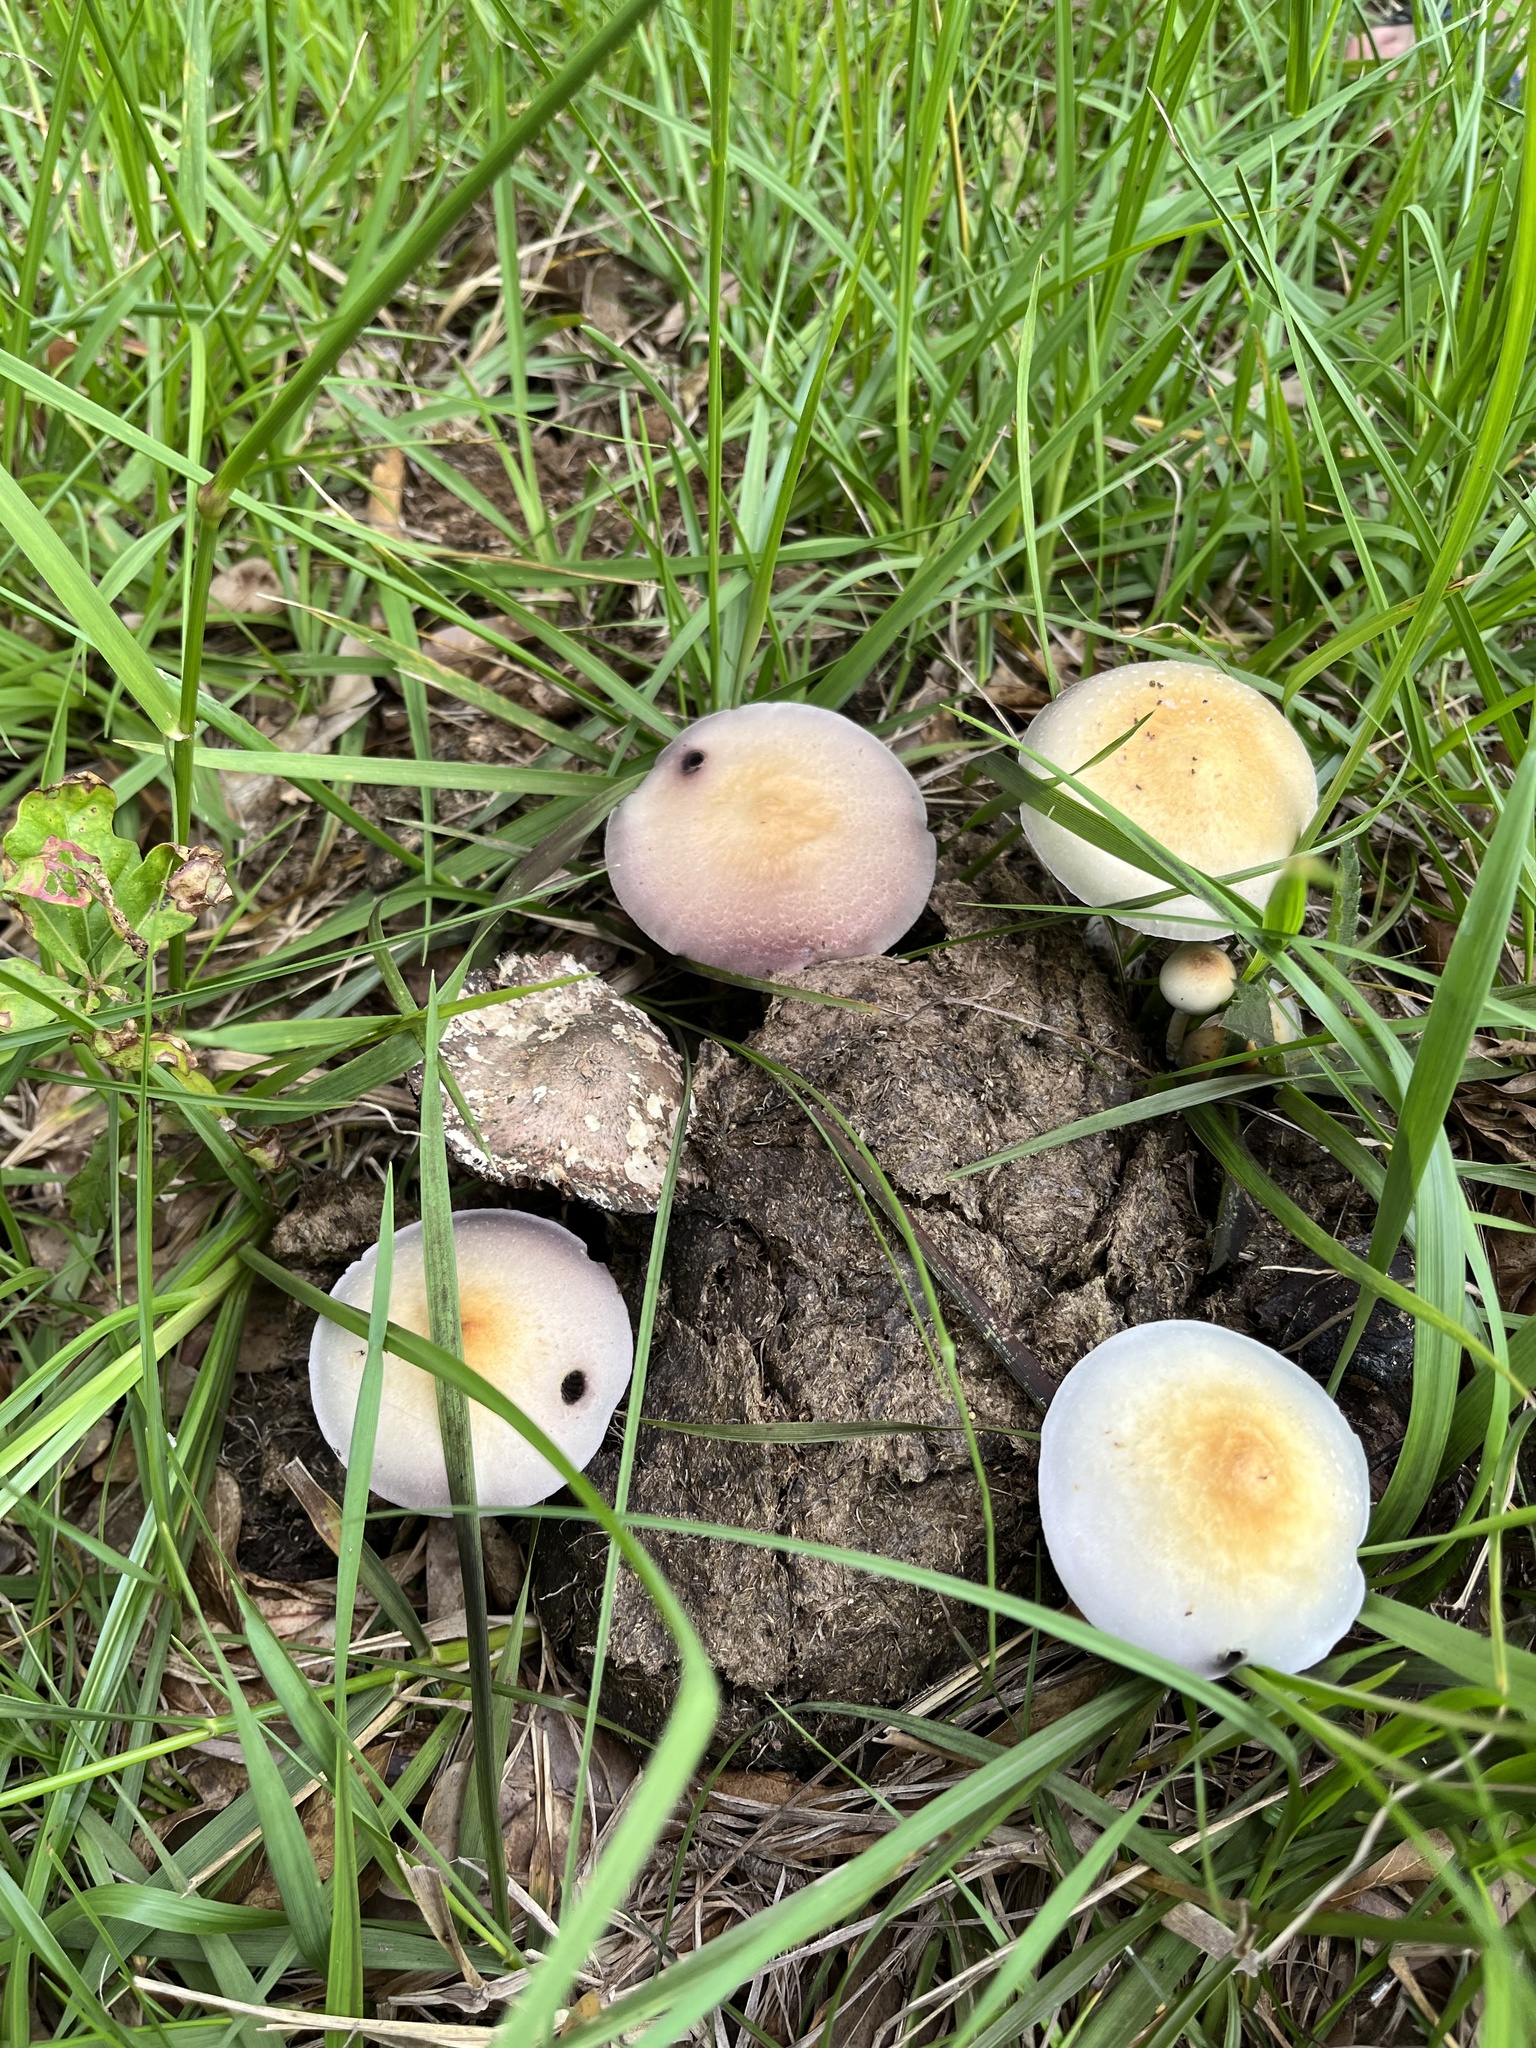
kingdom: Fungi
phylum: Basidiomycota
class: Agaricomycetes
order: Agaricales
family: Hymenogastraceae
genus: Psilocybe
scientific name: Psilocybe cubensis
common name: Golden brownie
